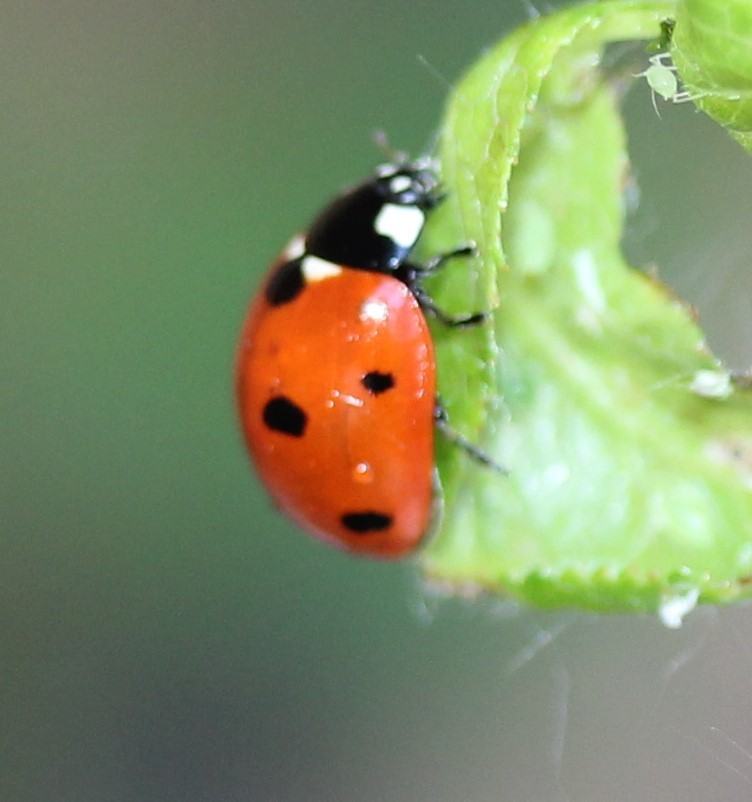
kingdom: Animalia
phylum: Arthropoda
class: Insecta
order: Coleoptera
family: Coccinellidae
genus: Coccinella
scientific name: Coccinella septempunctata
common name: Sevenspotted lady beetle
